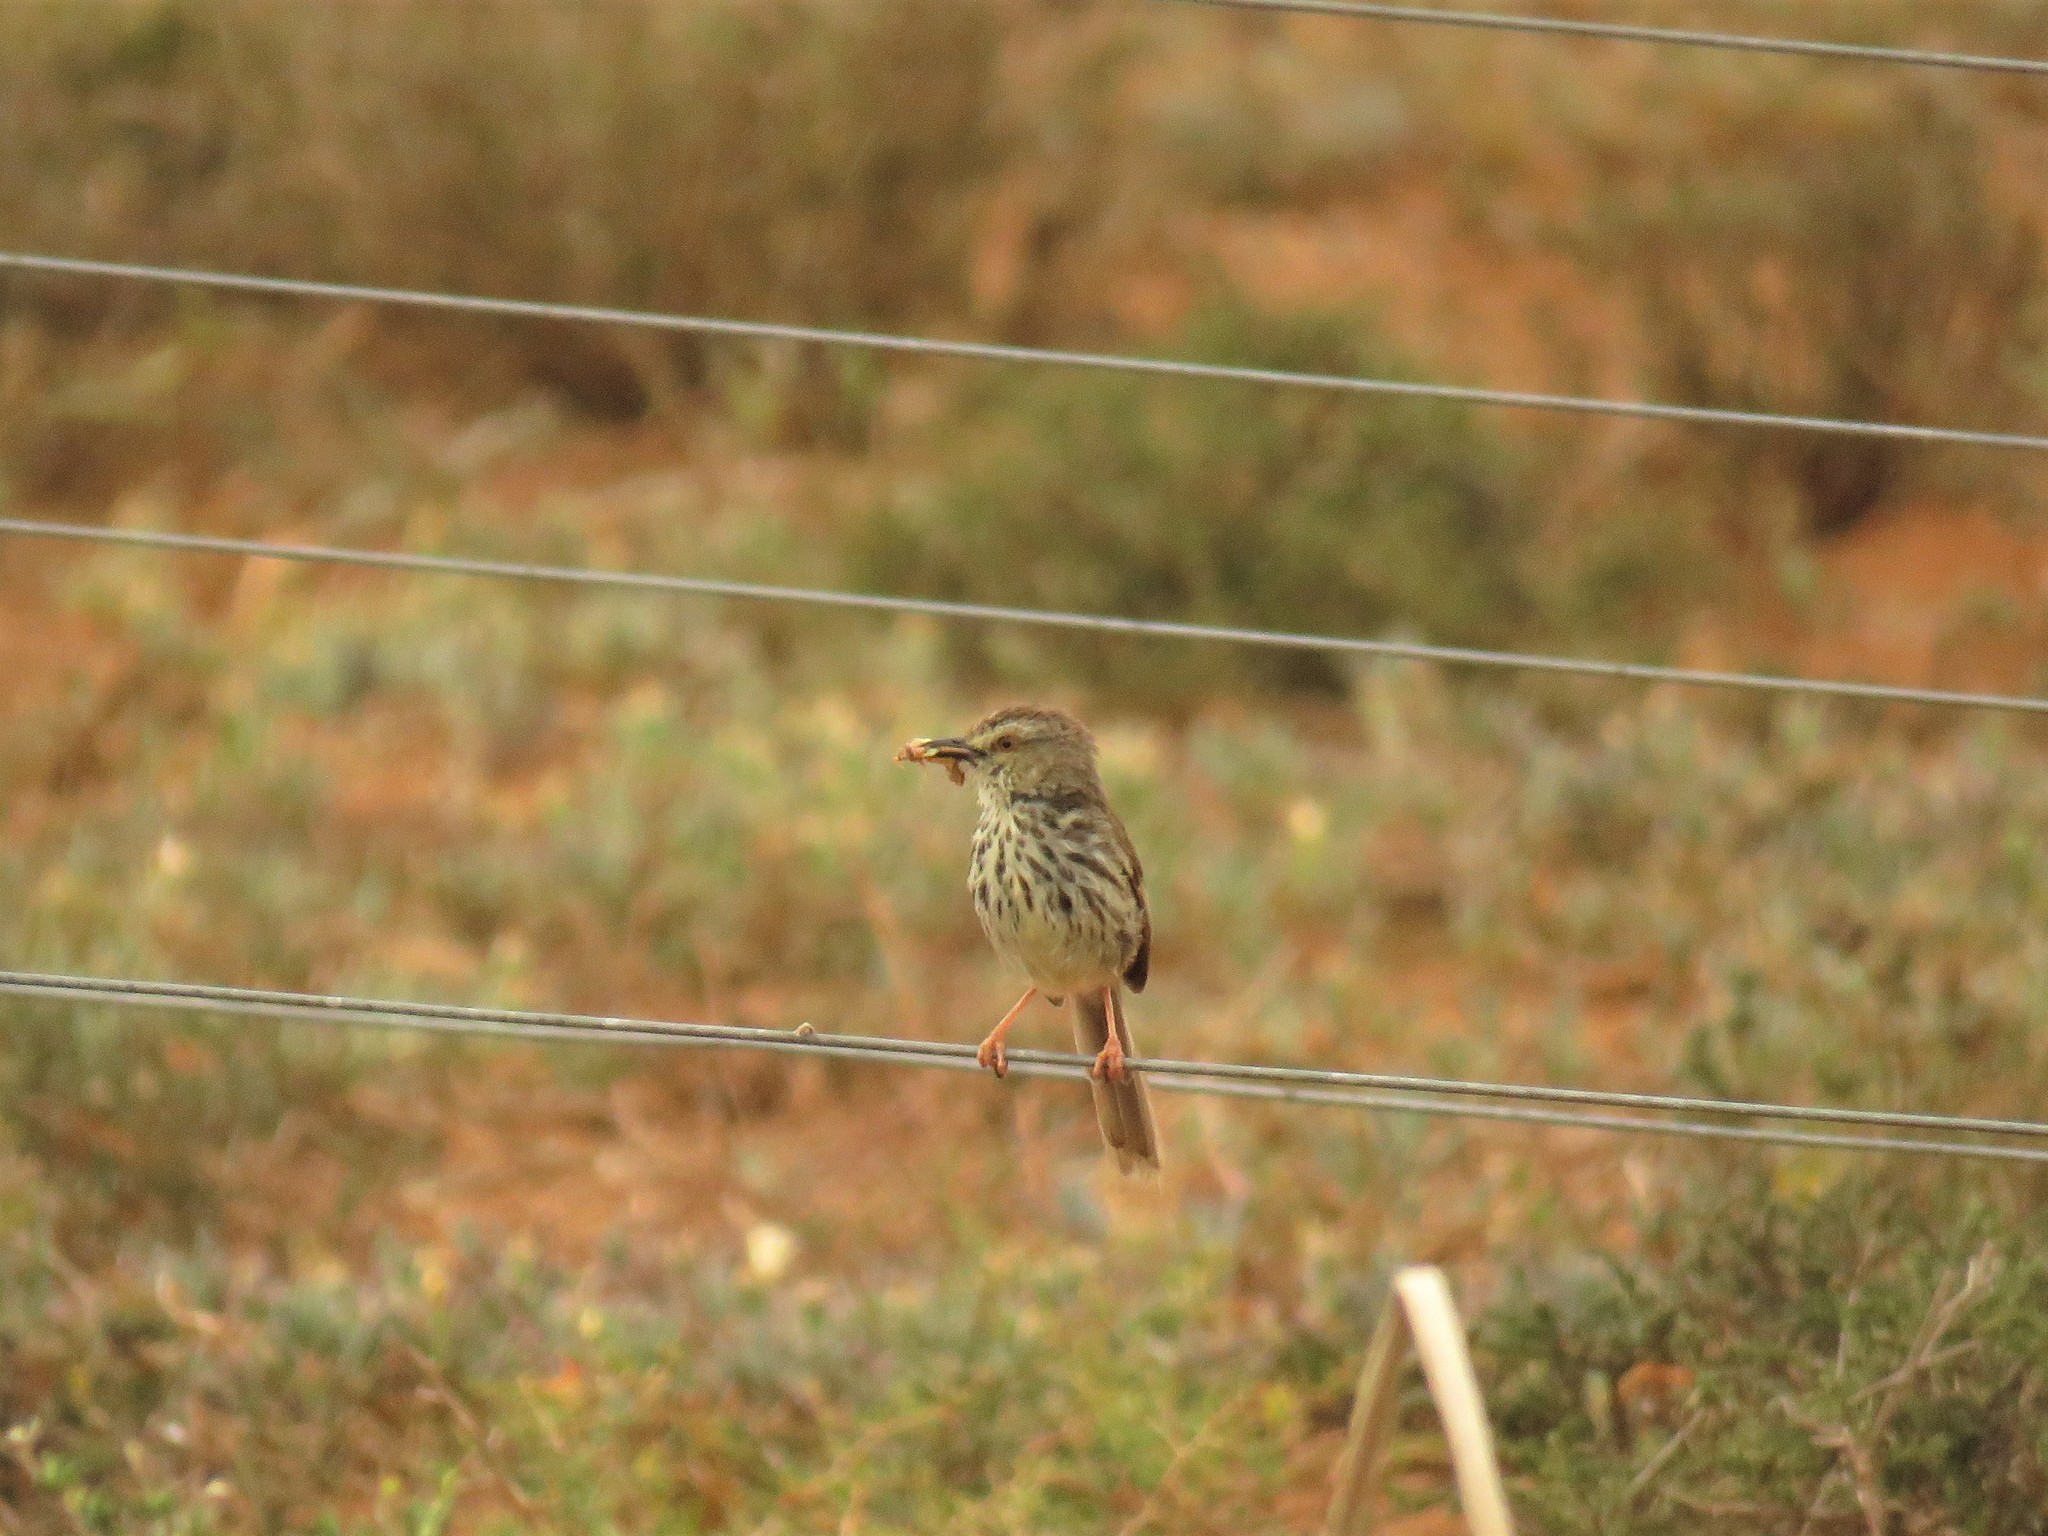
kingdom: Animalia
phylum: Chordata
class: Aves
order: Passeriformes
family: Cisticolidae
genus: Prinia
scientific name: Prinia maculosa
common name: Karoo prinia
